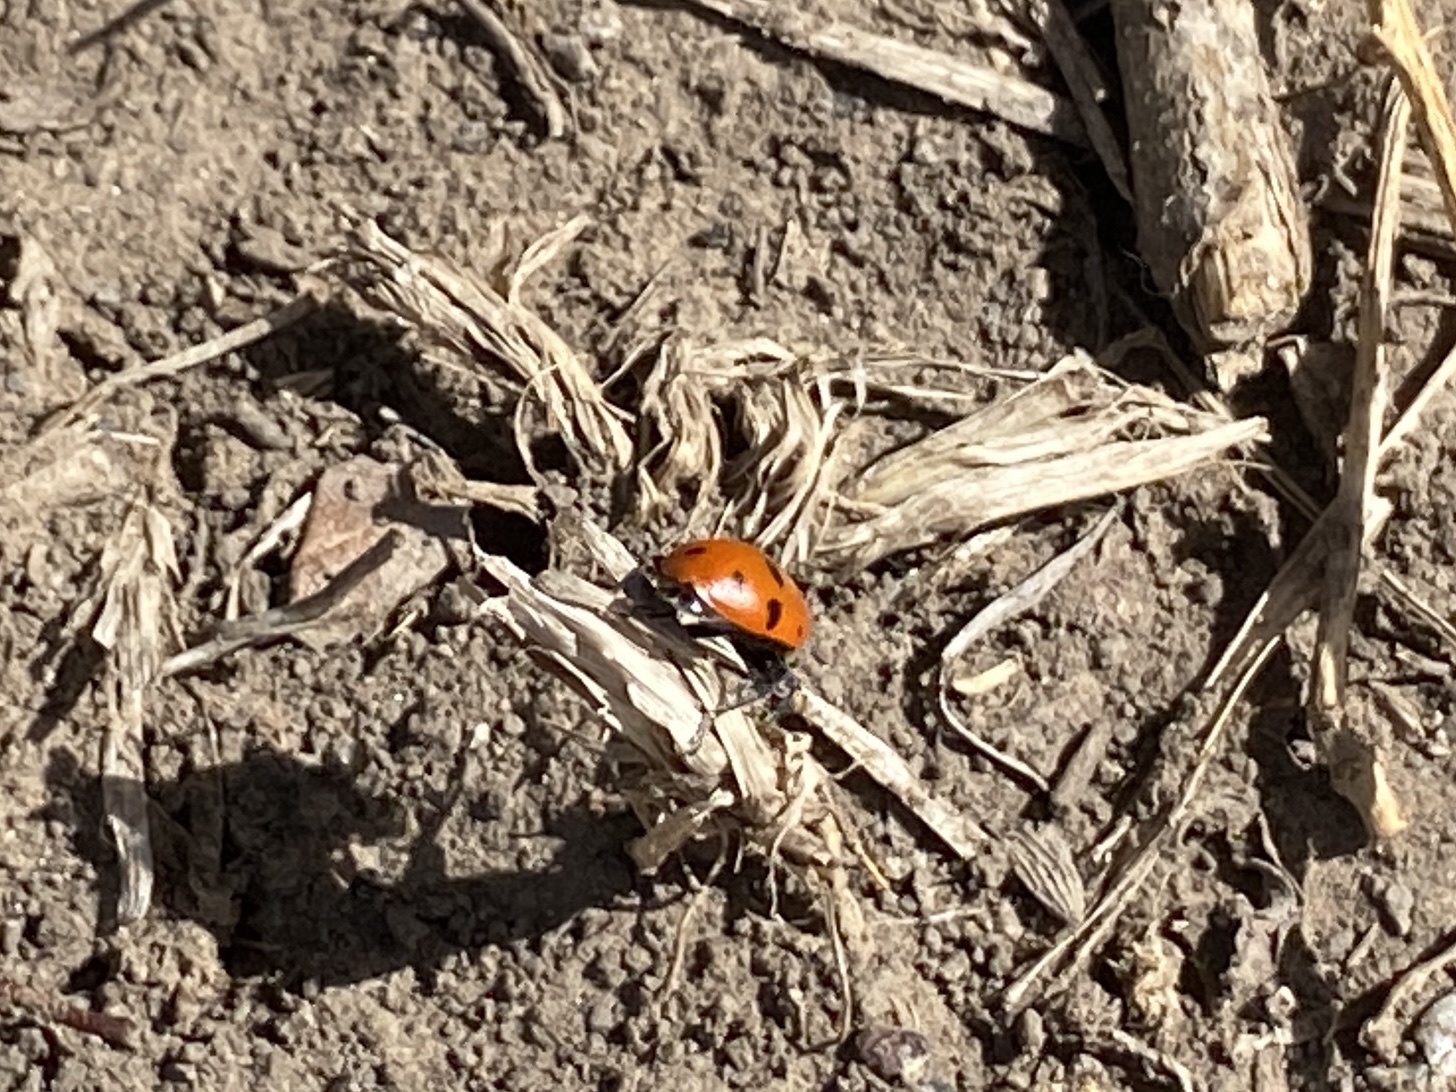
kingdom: Animalia
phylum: Arthropoda
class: Insecta
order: Coleoptera
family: Coccinellidae
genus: Hippodamia
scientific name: Hippodamia convergens
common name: Convergent lady beetle
